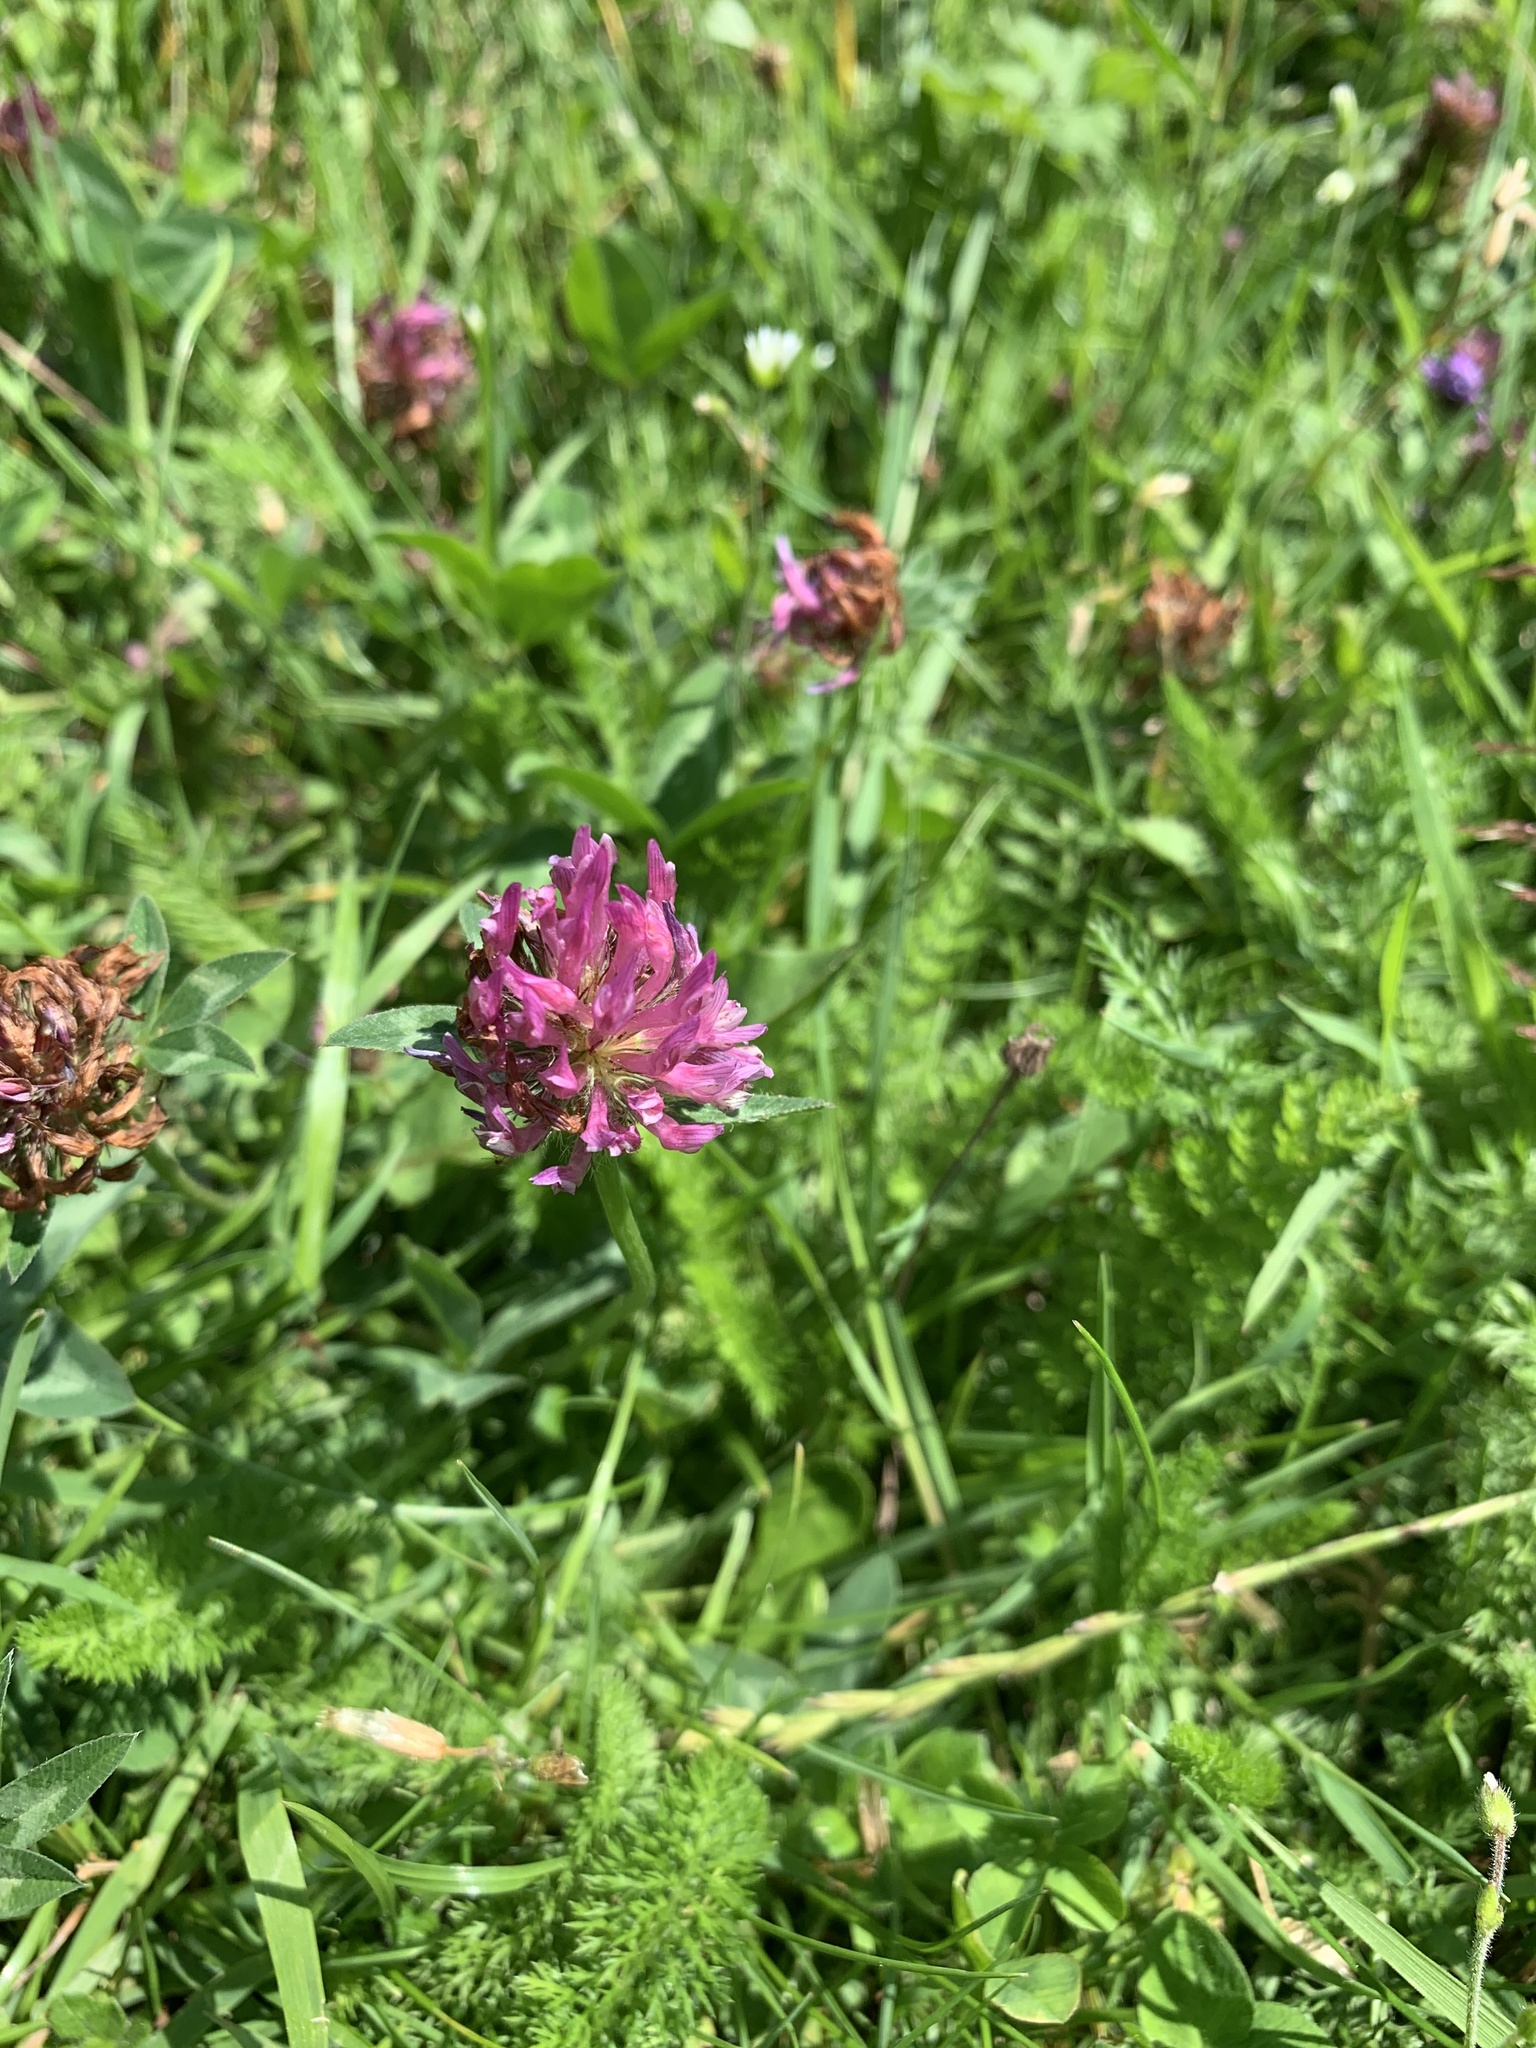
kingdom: Plantae
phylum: Tracheophyta
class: Magnoliopsida
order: Fabales
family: Fabaceae
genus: Trifolium
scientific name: Trifolium pratense
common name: Red clover
